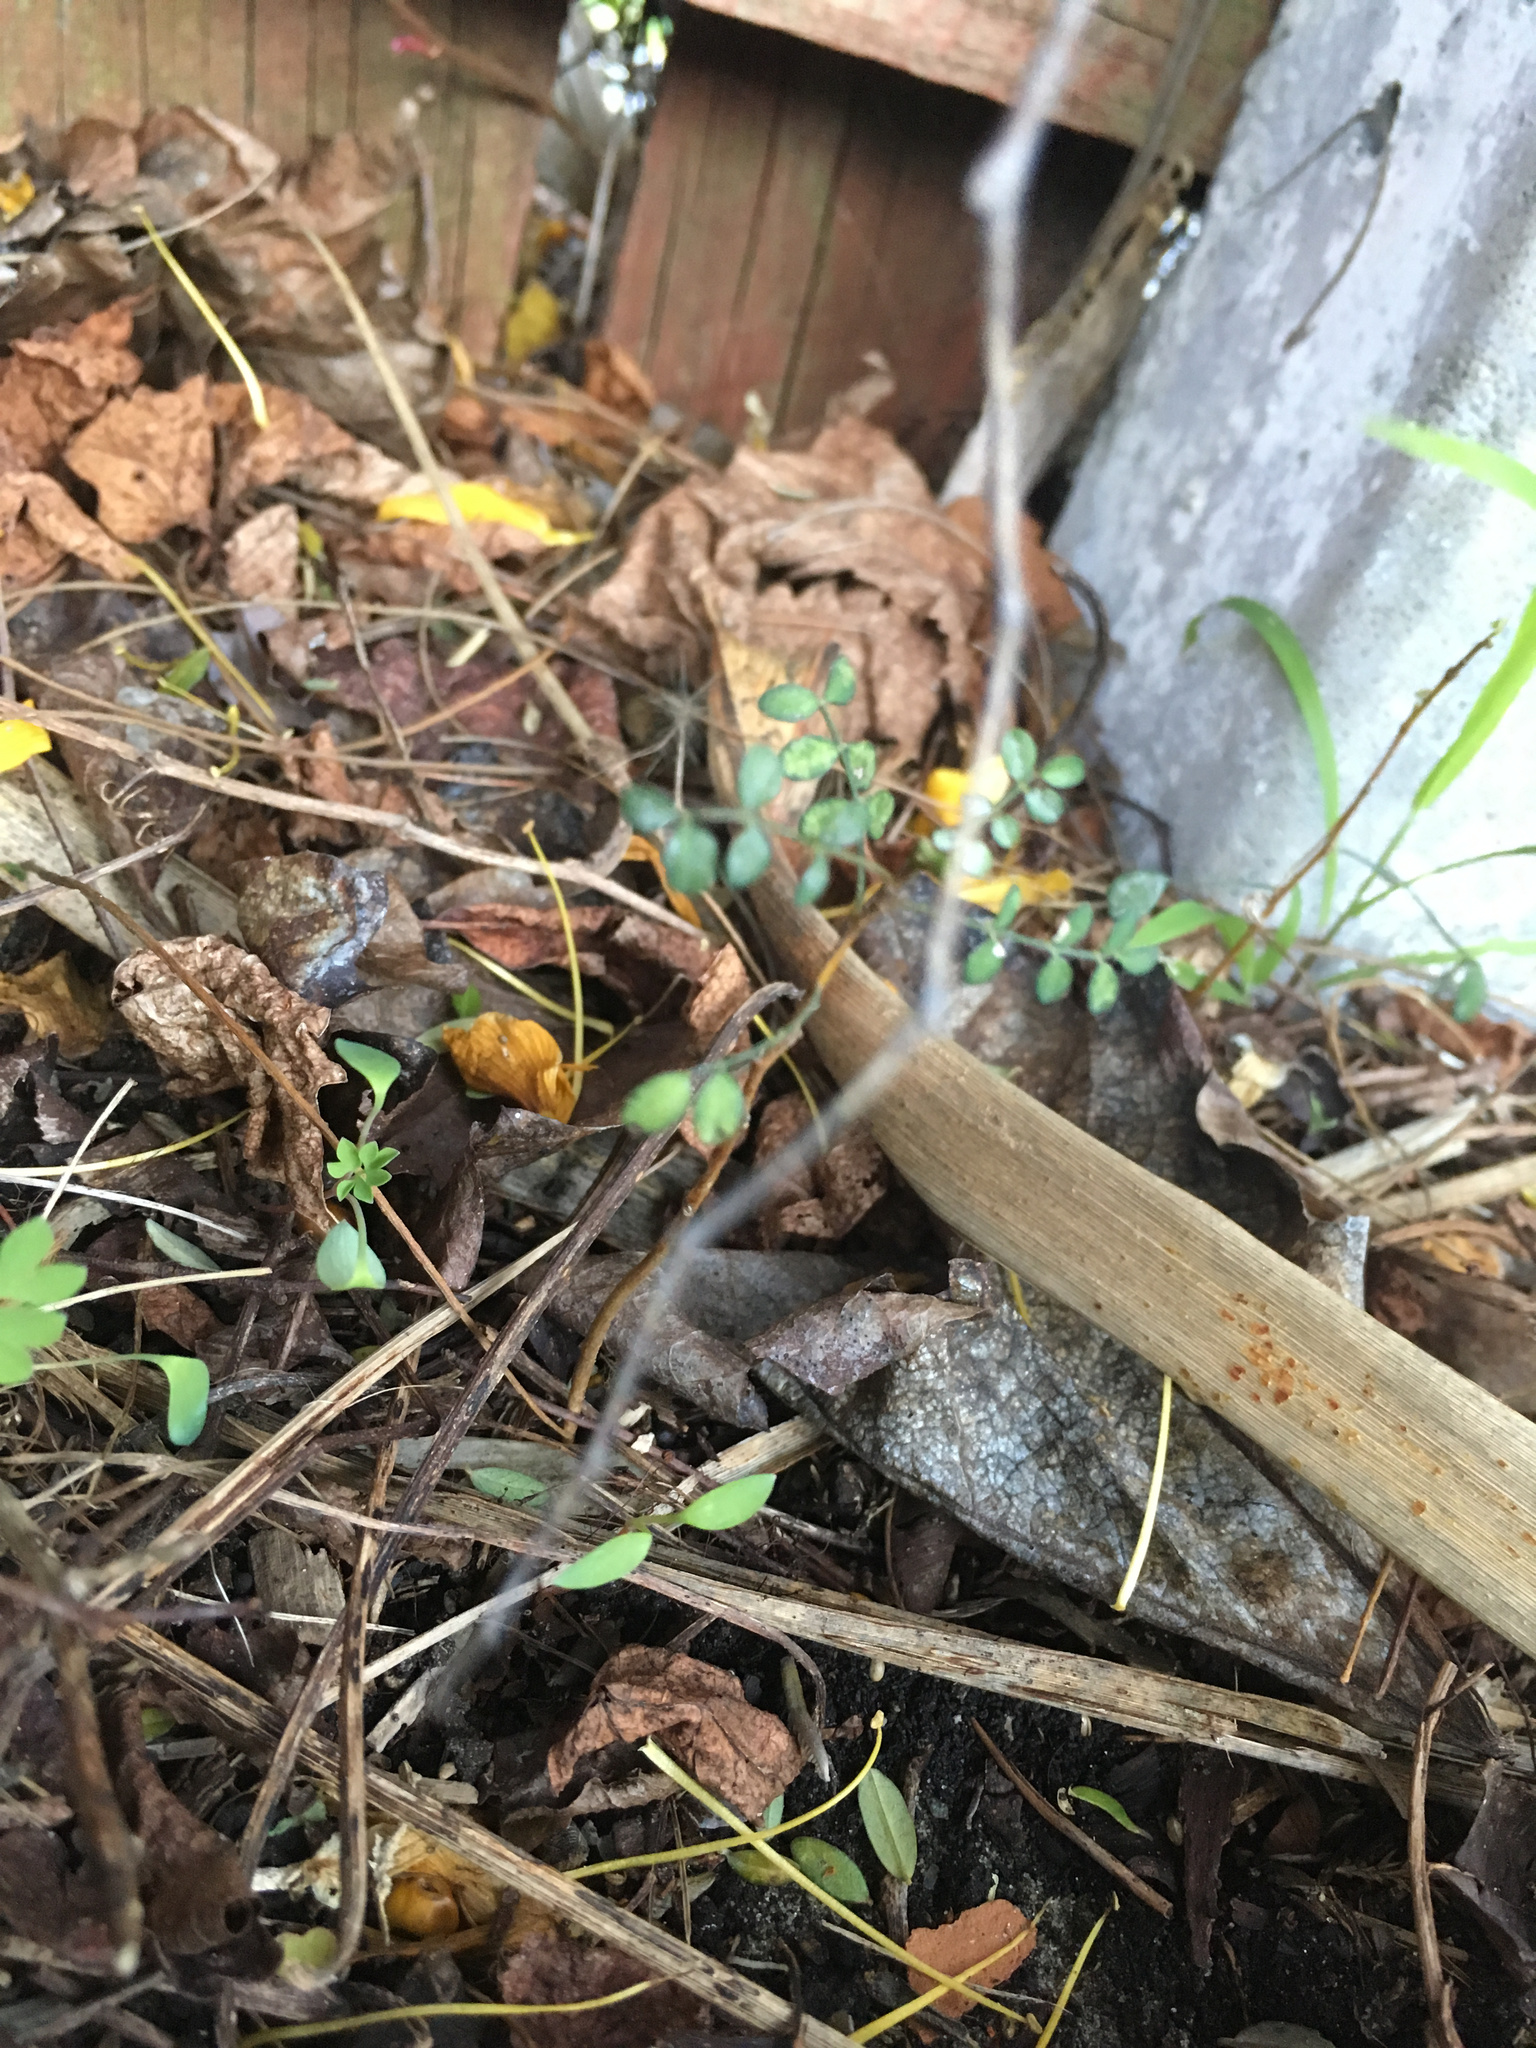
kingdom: Plantae
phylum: Tracheophyta
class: Magnoliopsida
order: Fabales
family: Fabaceae
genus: Sophora
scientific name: Sophora microphylla
